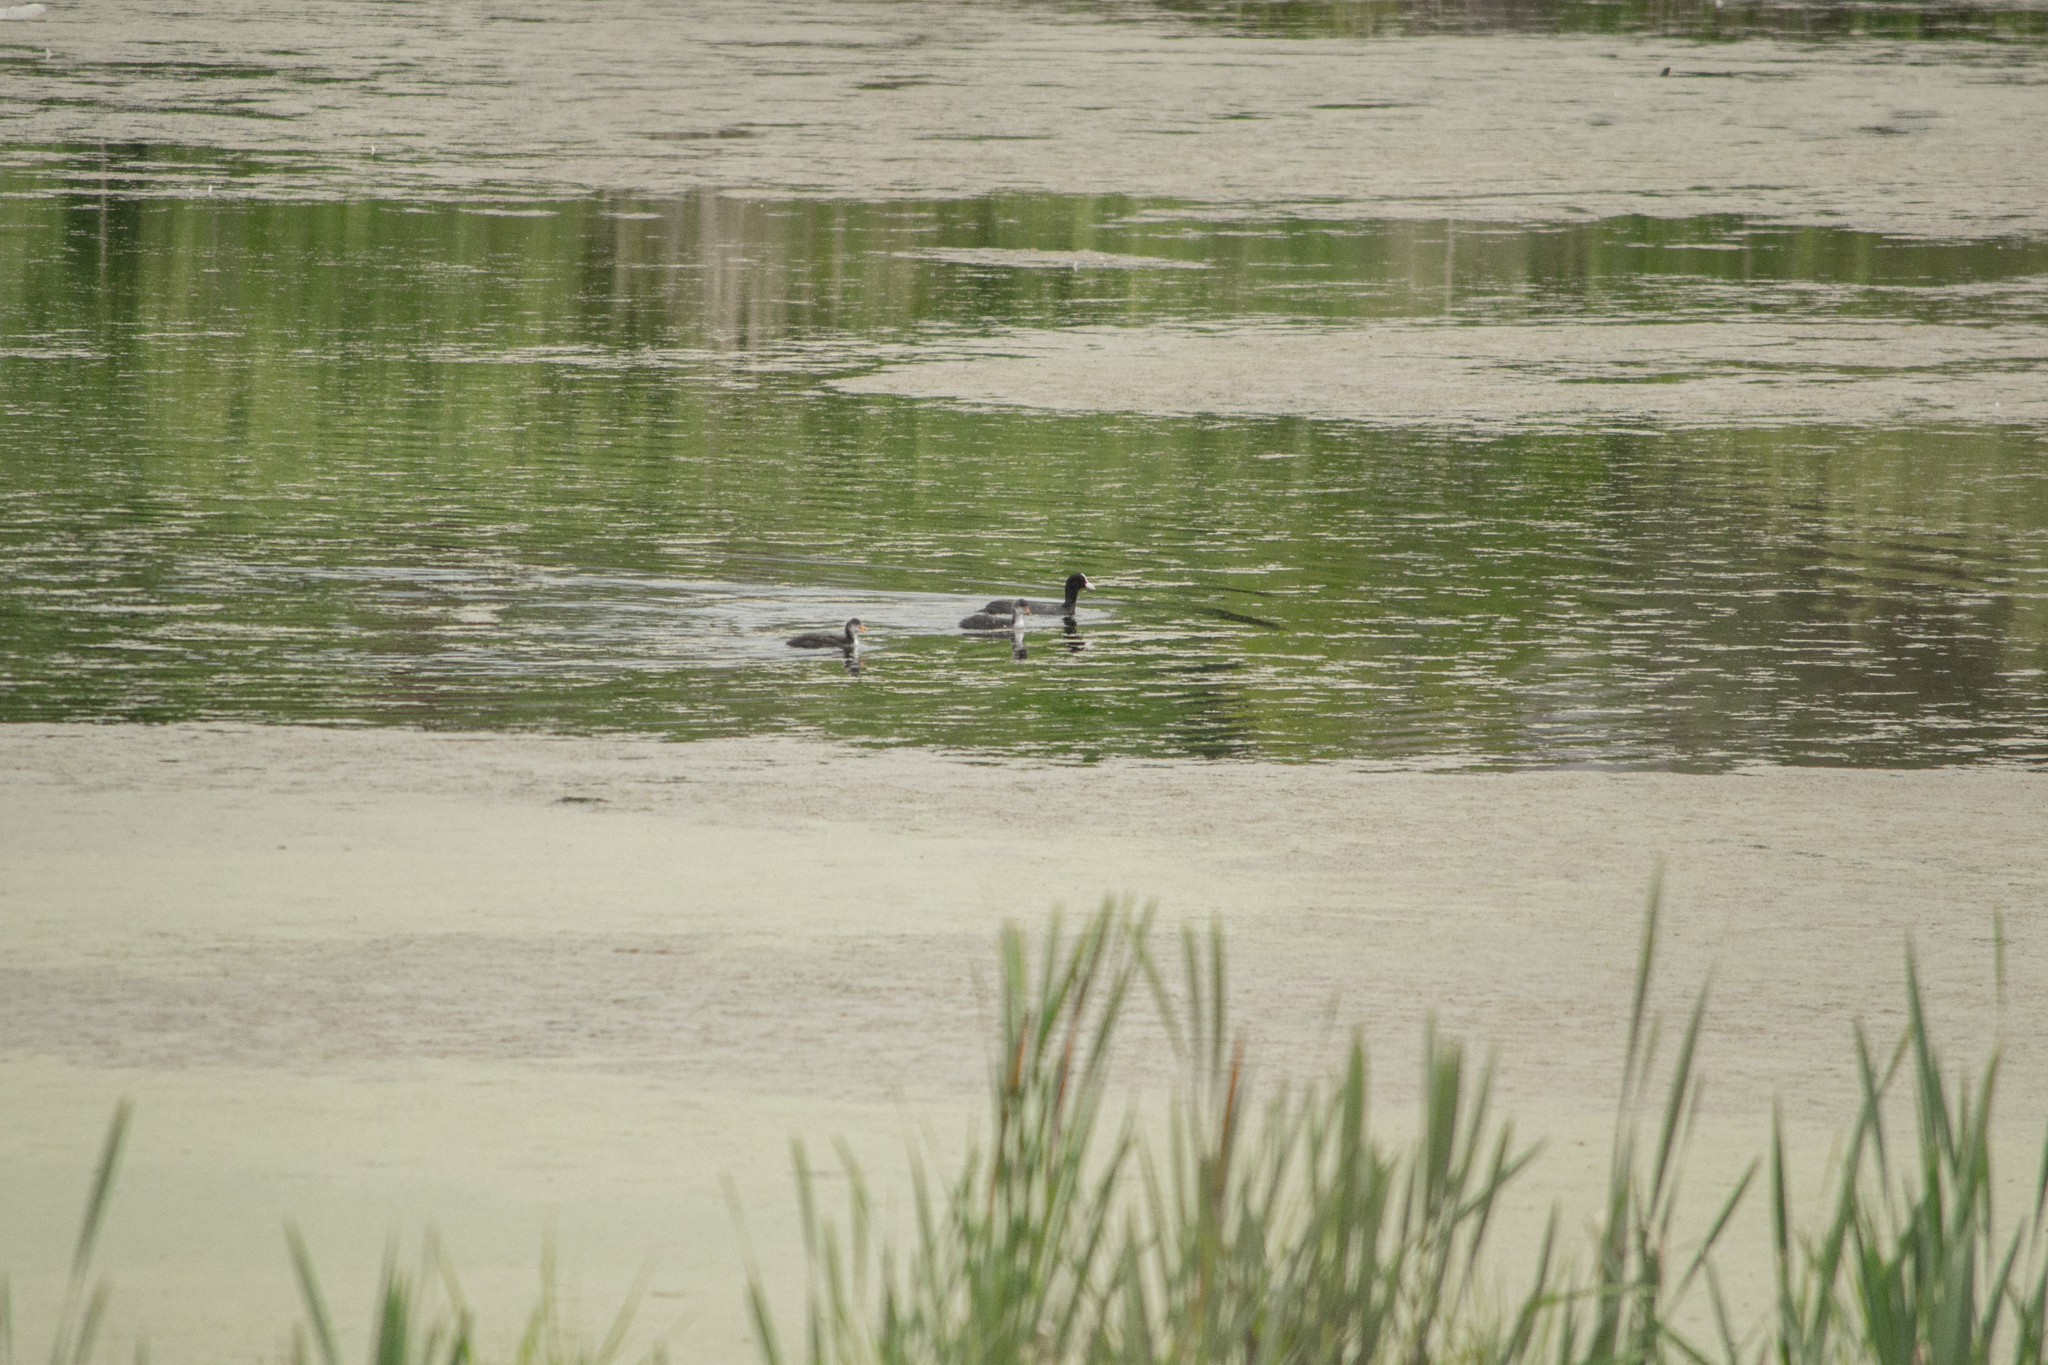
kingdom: Animalia
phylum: Chordata
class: Aves
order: Gruiformes
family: Rallidae
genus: Fulica
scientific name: Fulica atra
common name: Eurasian coot
